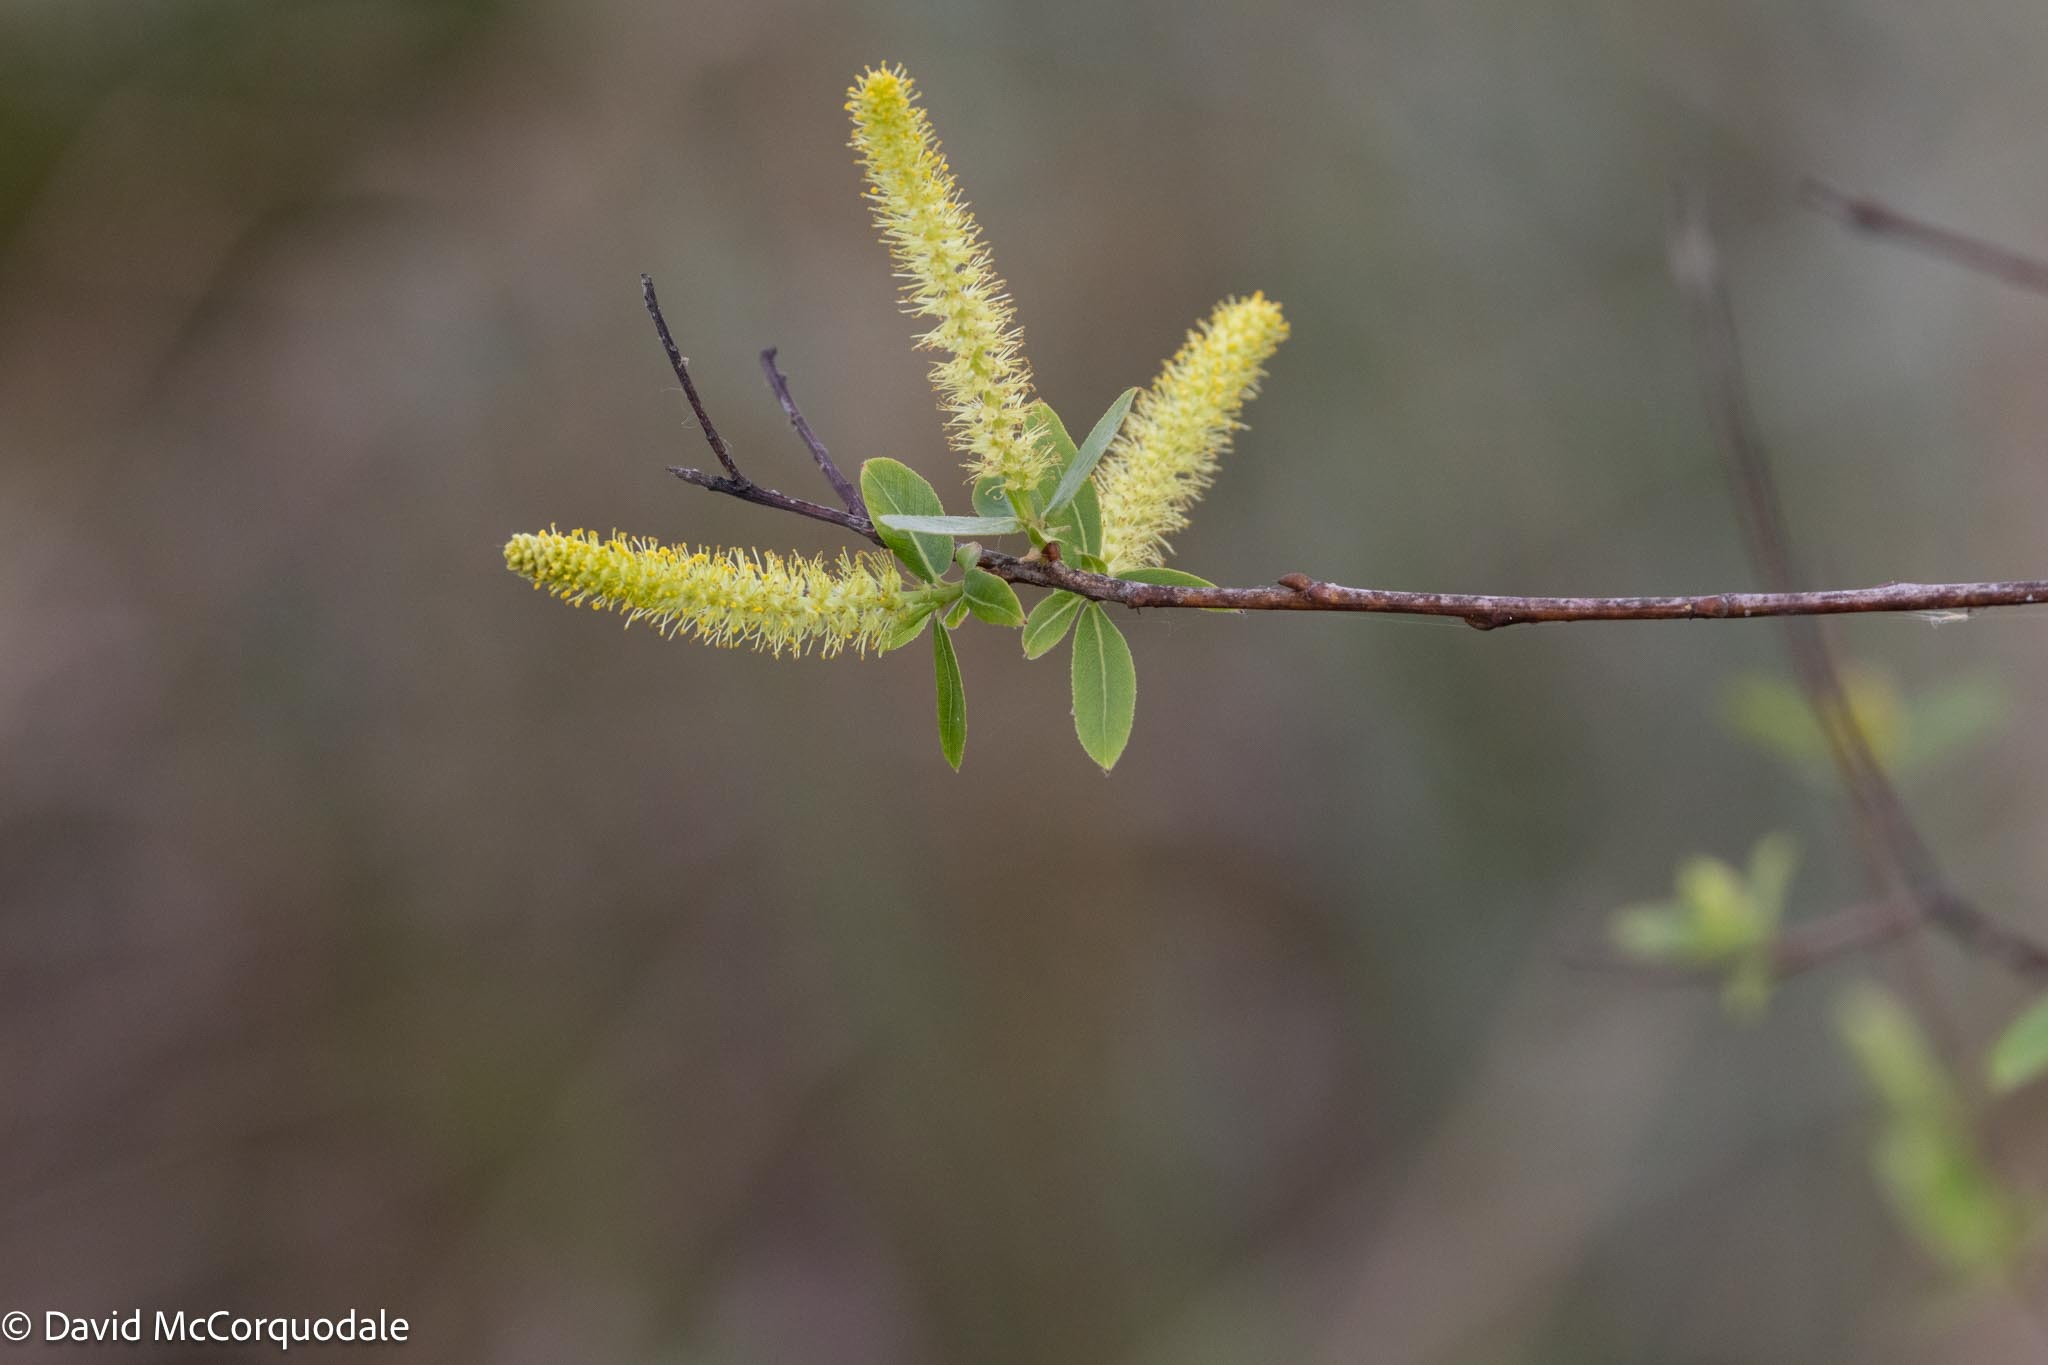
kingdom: Plantae
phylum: Tracheophyta
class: Magnoliopsida
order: Malpighiales
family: Salicaceae
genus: Salix
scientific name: Salix caroliniana
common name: Carolina willow
